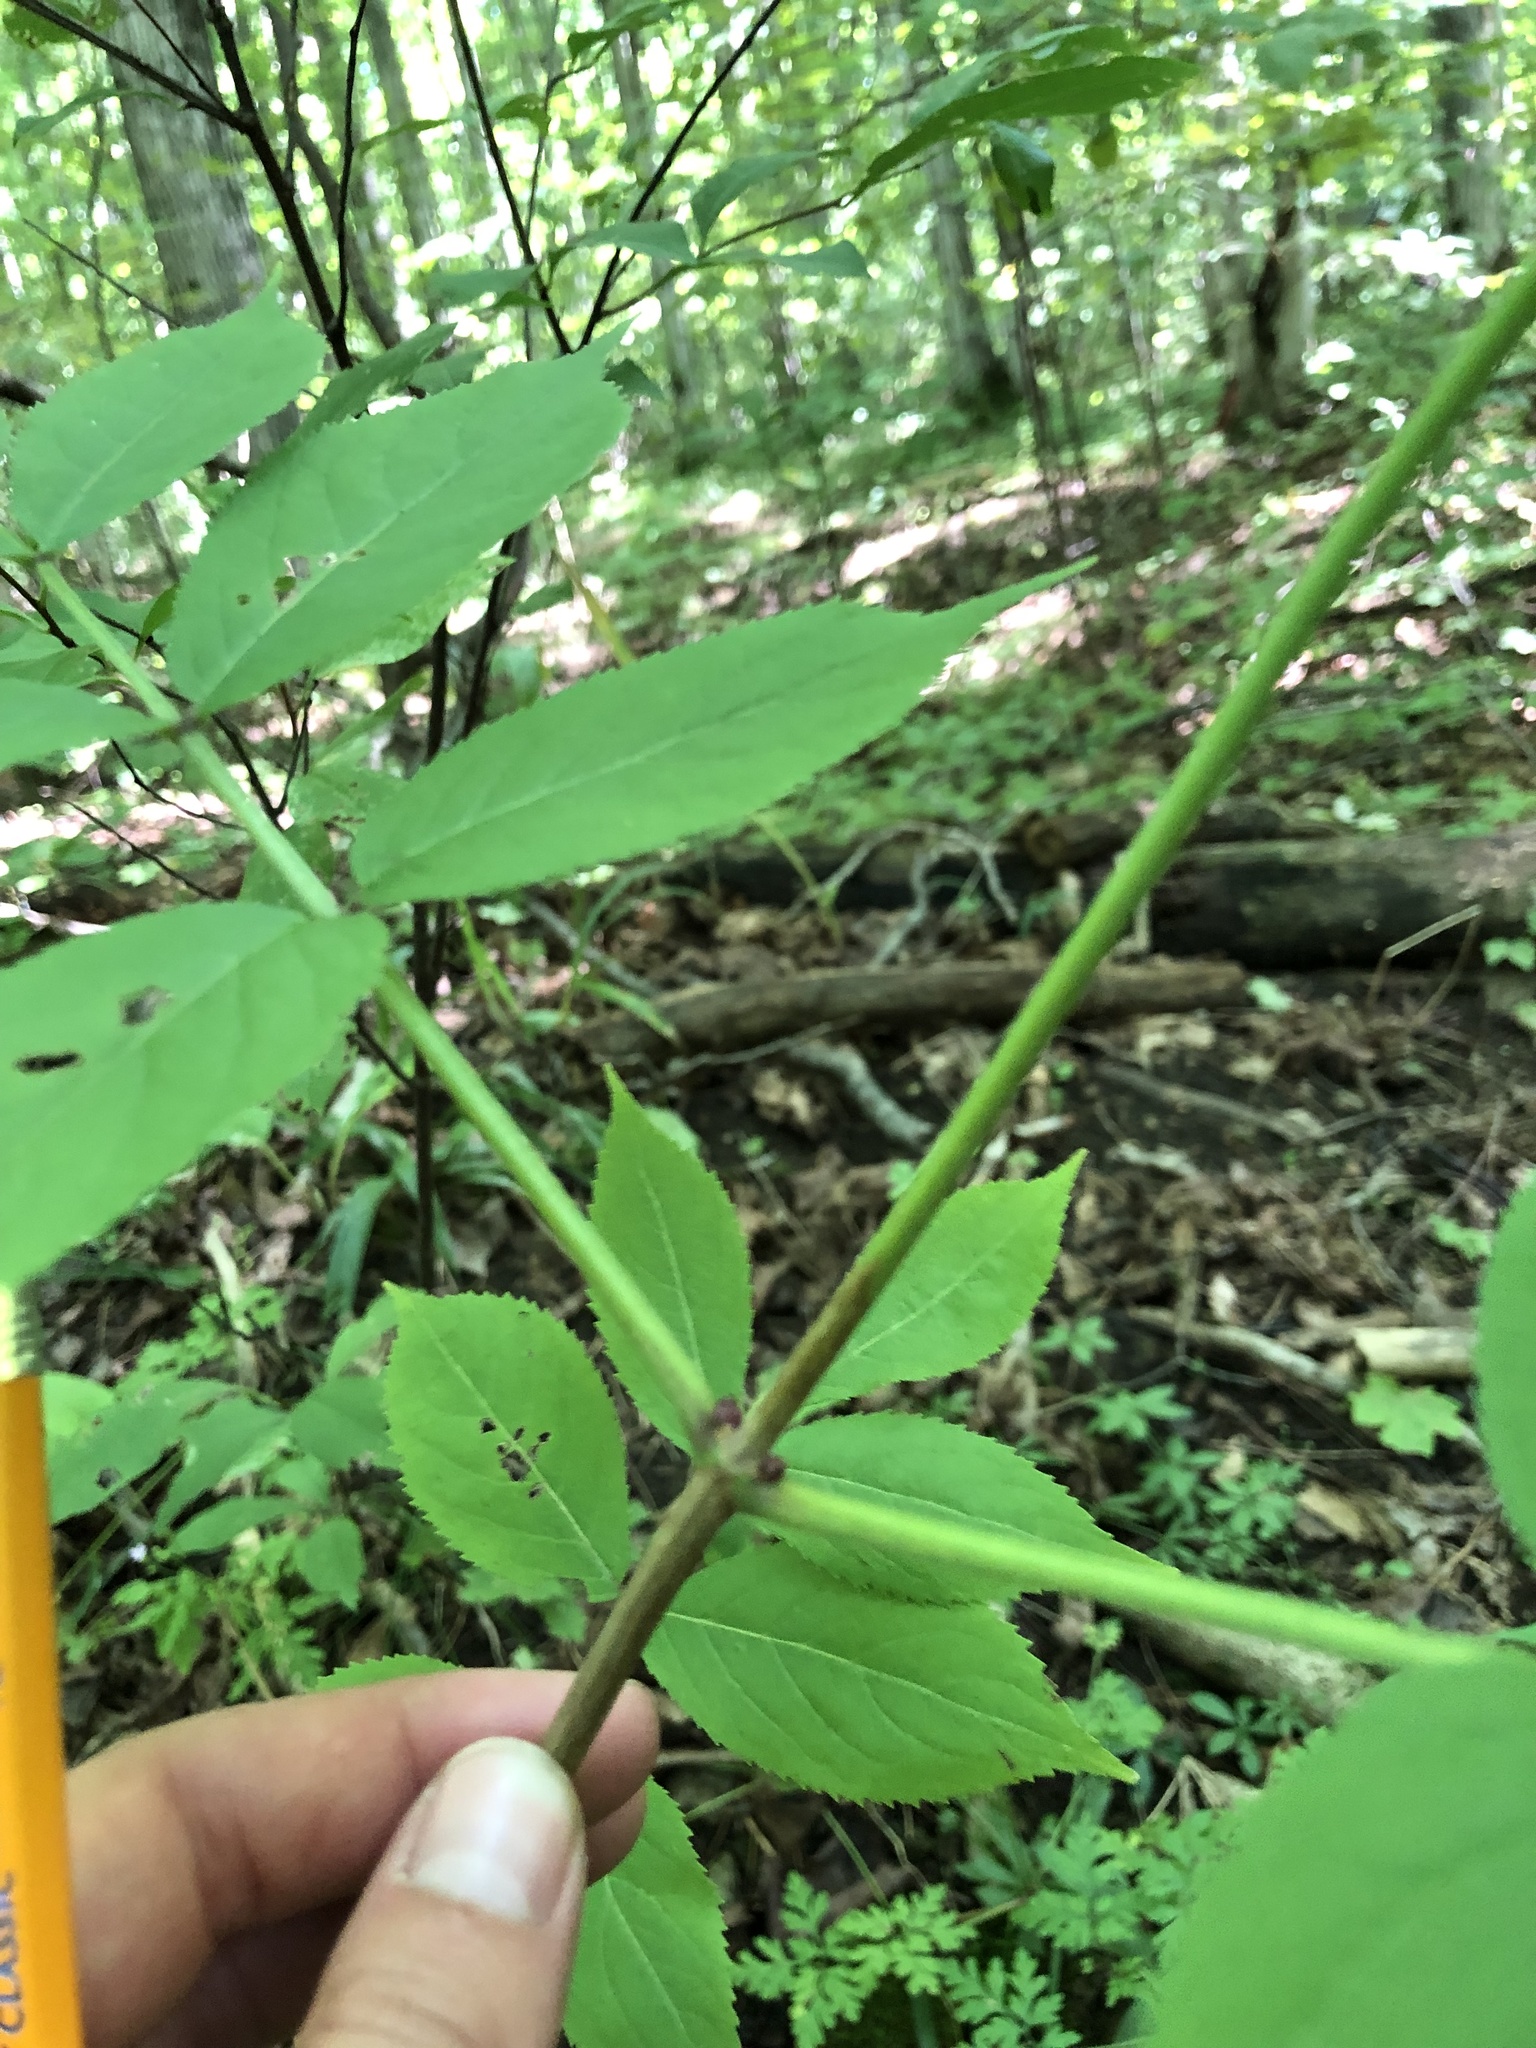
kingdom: Plantae
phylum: Tracheophyta
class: Magnoliopsida
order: Dipsacales
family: Viburnaceae
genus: Sambucus
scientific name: Sambucus racemosa
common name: Red-berried elder
